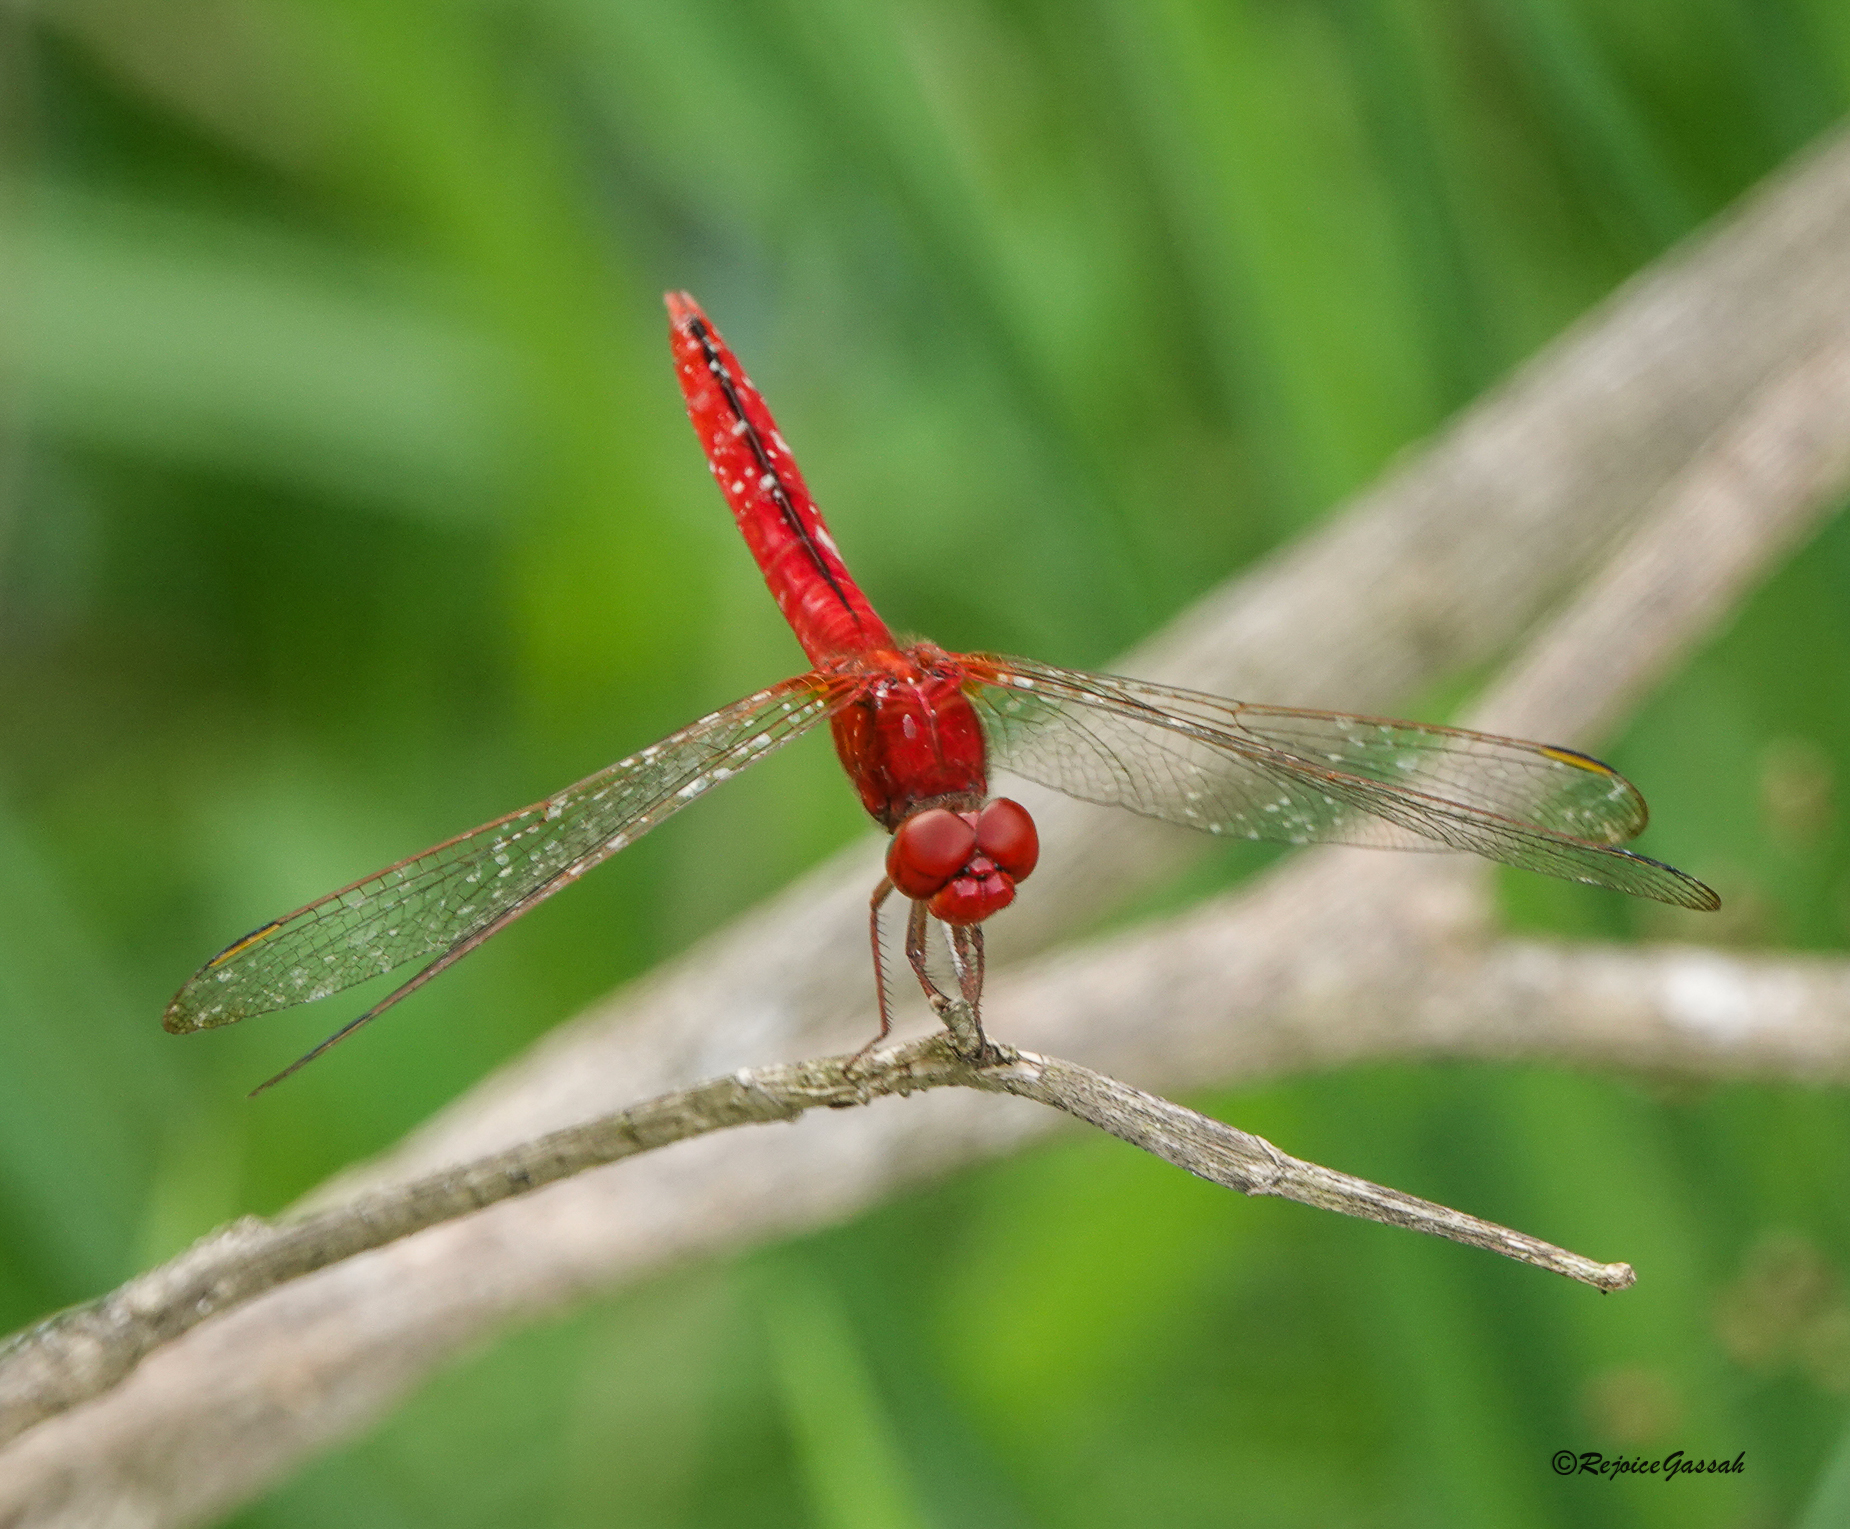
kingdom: Animalia
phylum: Arthropoda
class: Insecta
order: Odonata
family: Libellulidae
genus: Crocothemis
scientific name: Crocothemis servilia
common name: Scarlet skimmer
